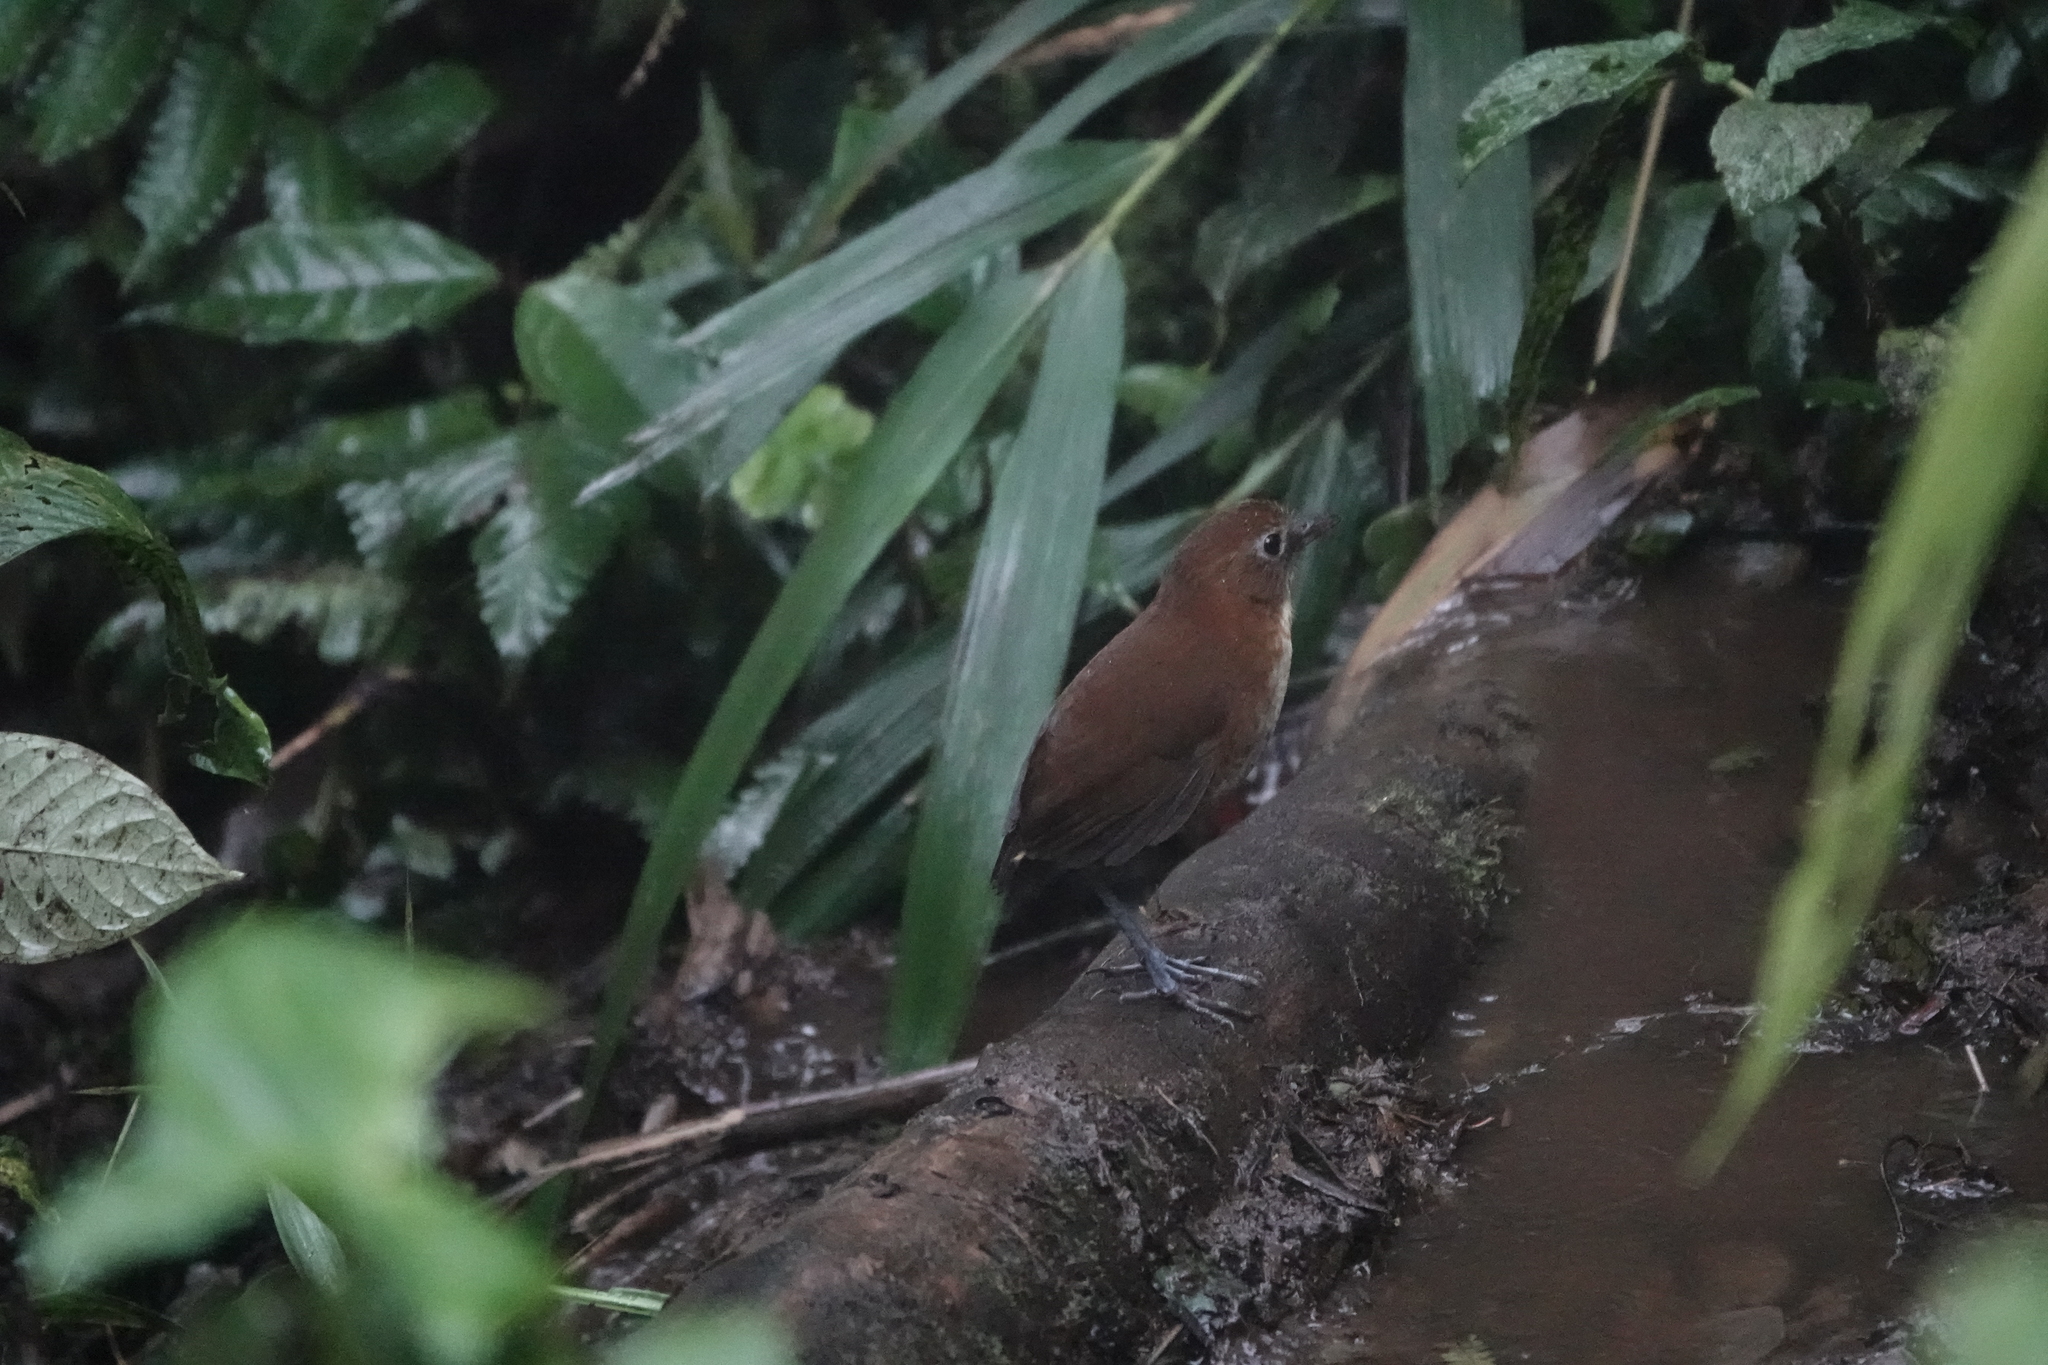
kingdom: Animalia
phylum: Chordata
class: Aves
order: Passeriformes
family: Grallariidae
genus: Grallaria
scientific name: Grallaria flavotincta
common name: Yellow-breasted antpitta
